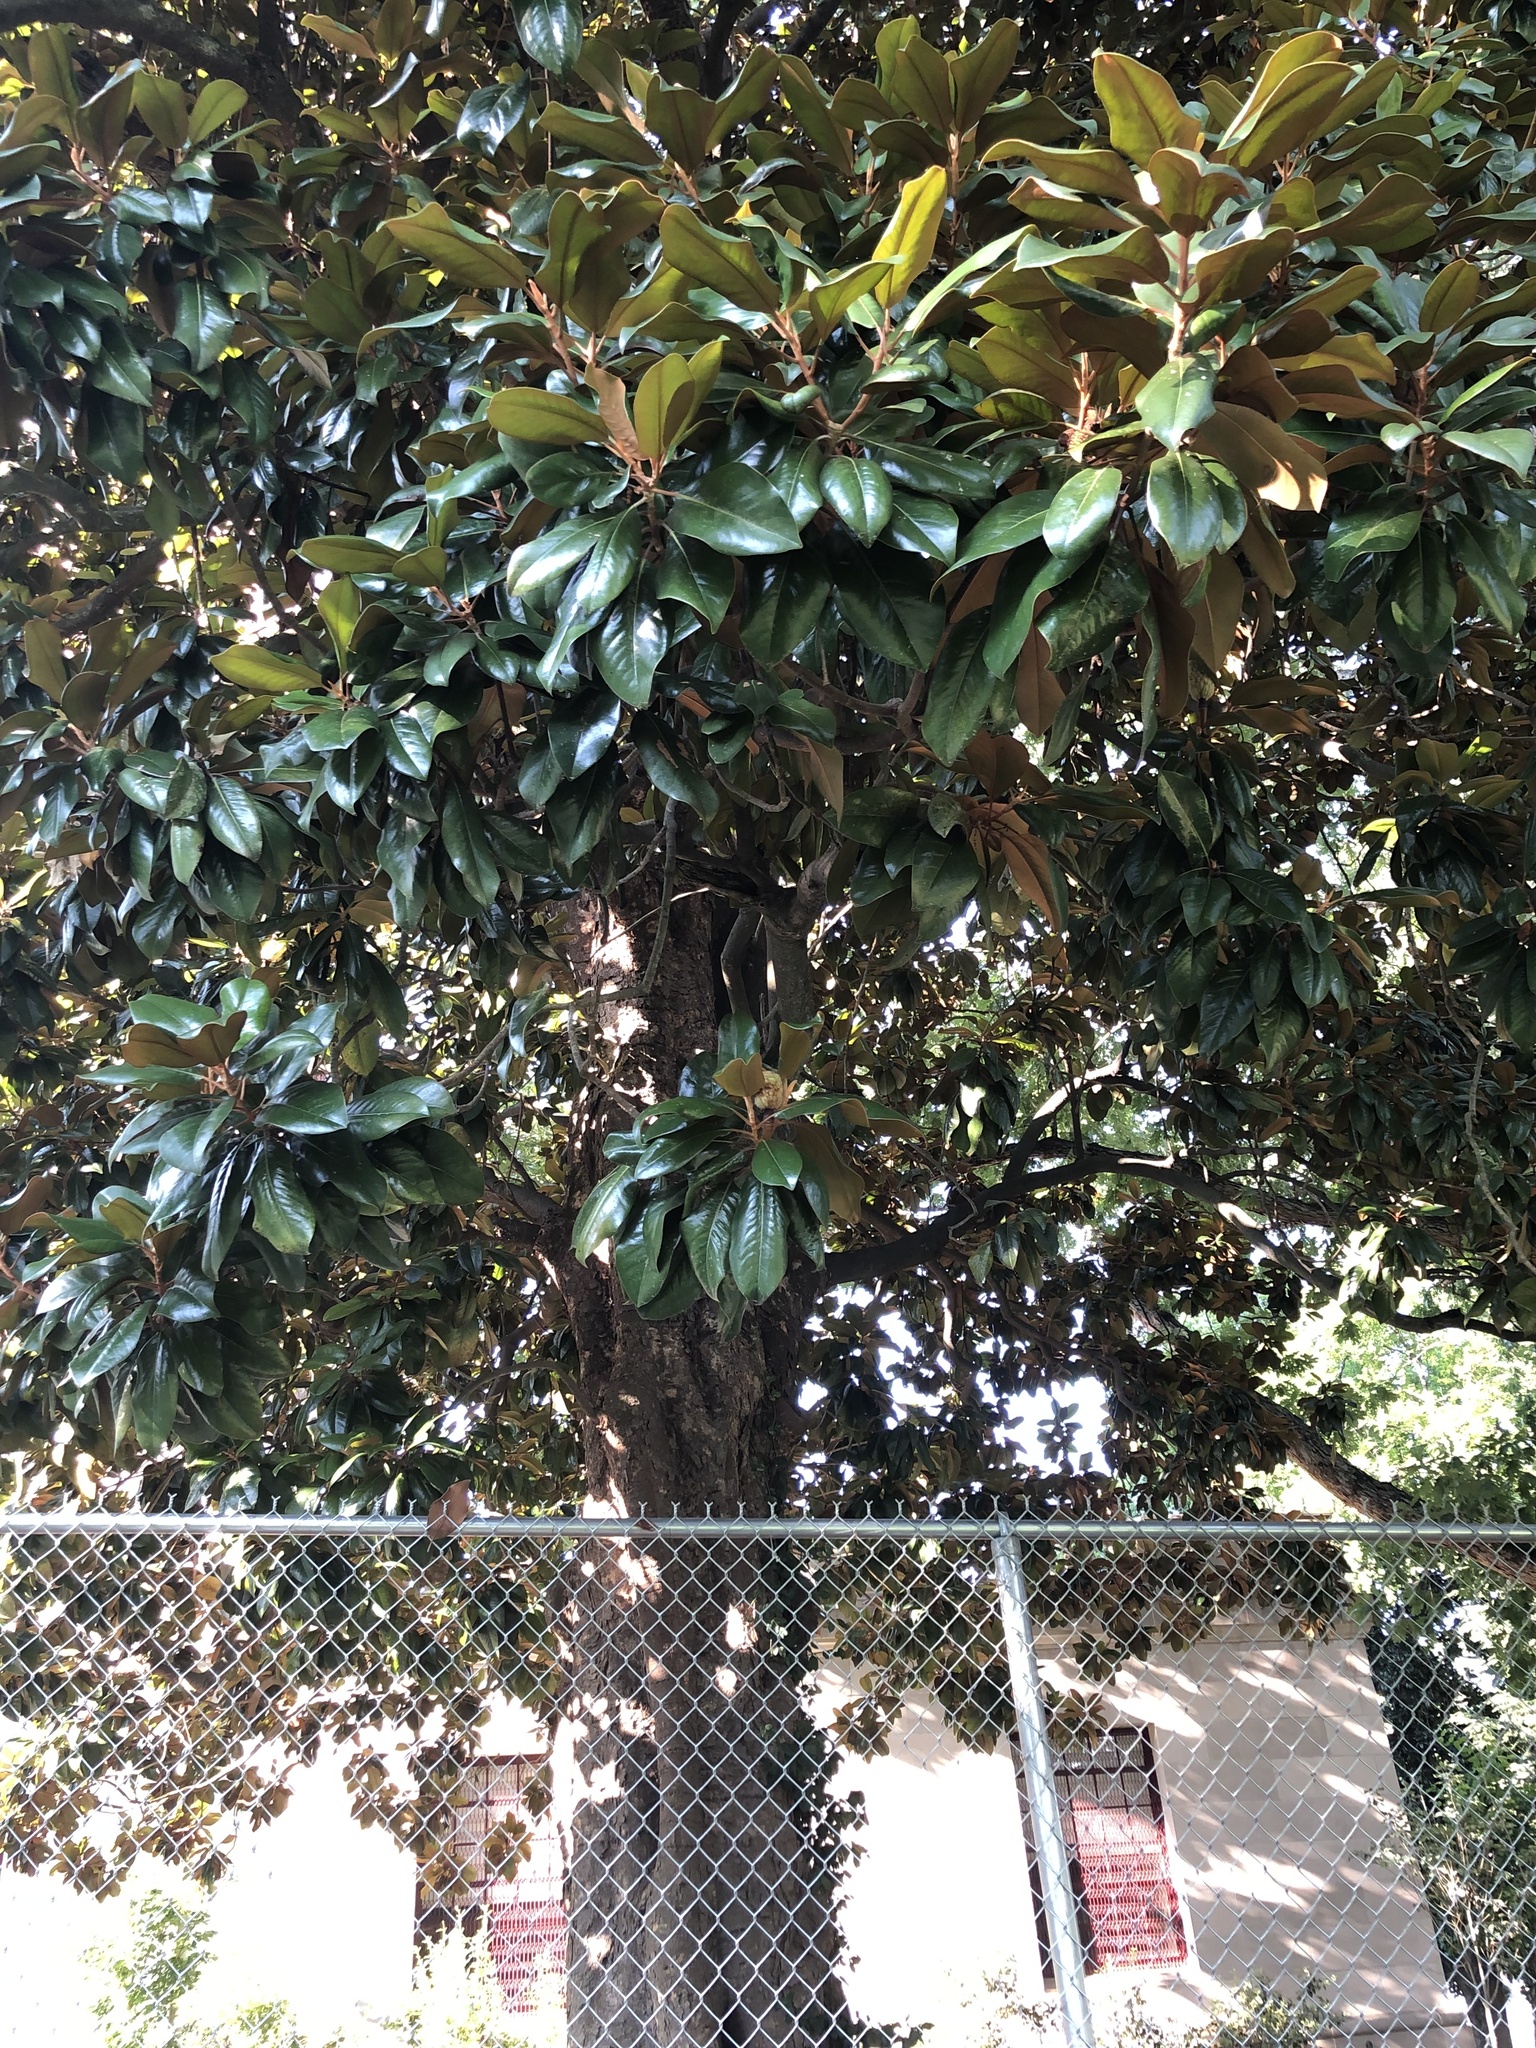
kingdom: Plantae
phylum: Tracheophyta
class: Magnoliopsida
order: Magnoliales
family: Magnoliaceae
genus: Magnolia
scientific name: Magnolia grandiflora
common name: Southern magnolia
